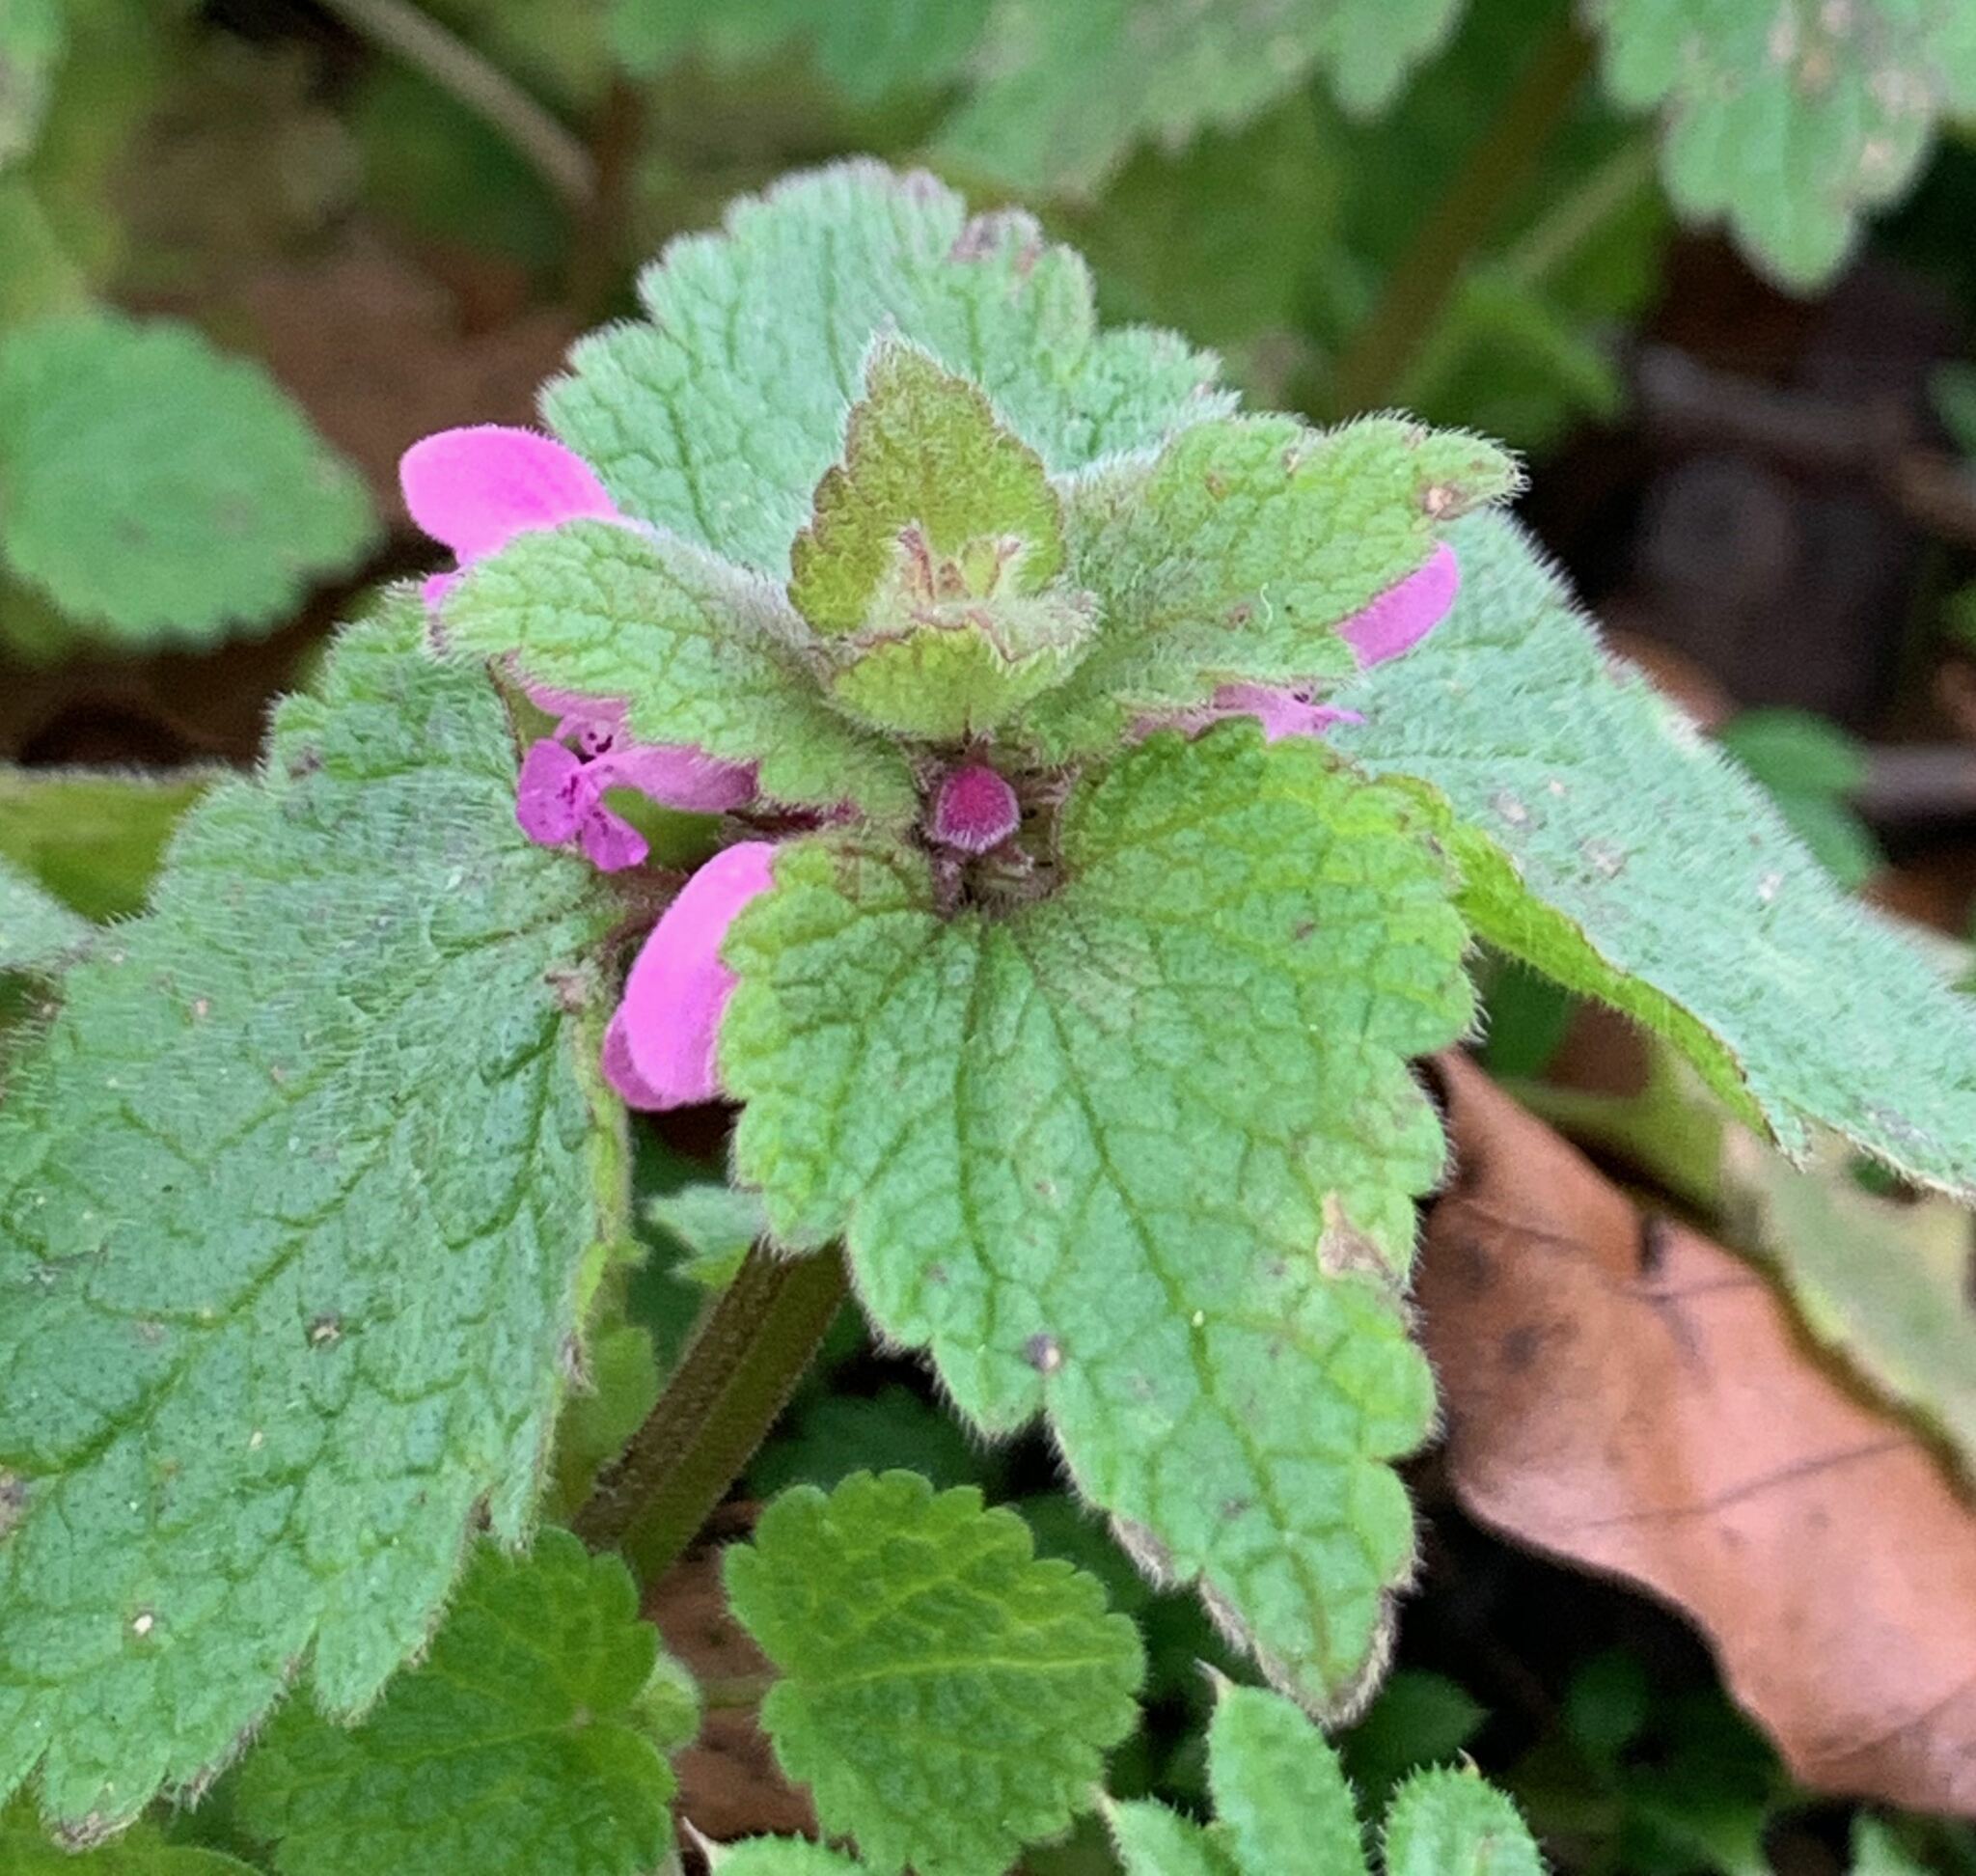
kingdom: Plantae
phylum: Tracheophyta
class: Magnoliopsida
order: Lamiales
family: Lamiaceae
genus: Lamium
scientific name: Lamium purpureum
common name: Red dead-nettle
